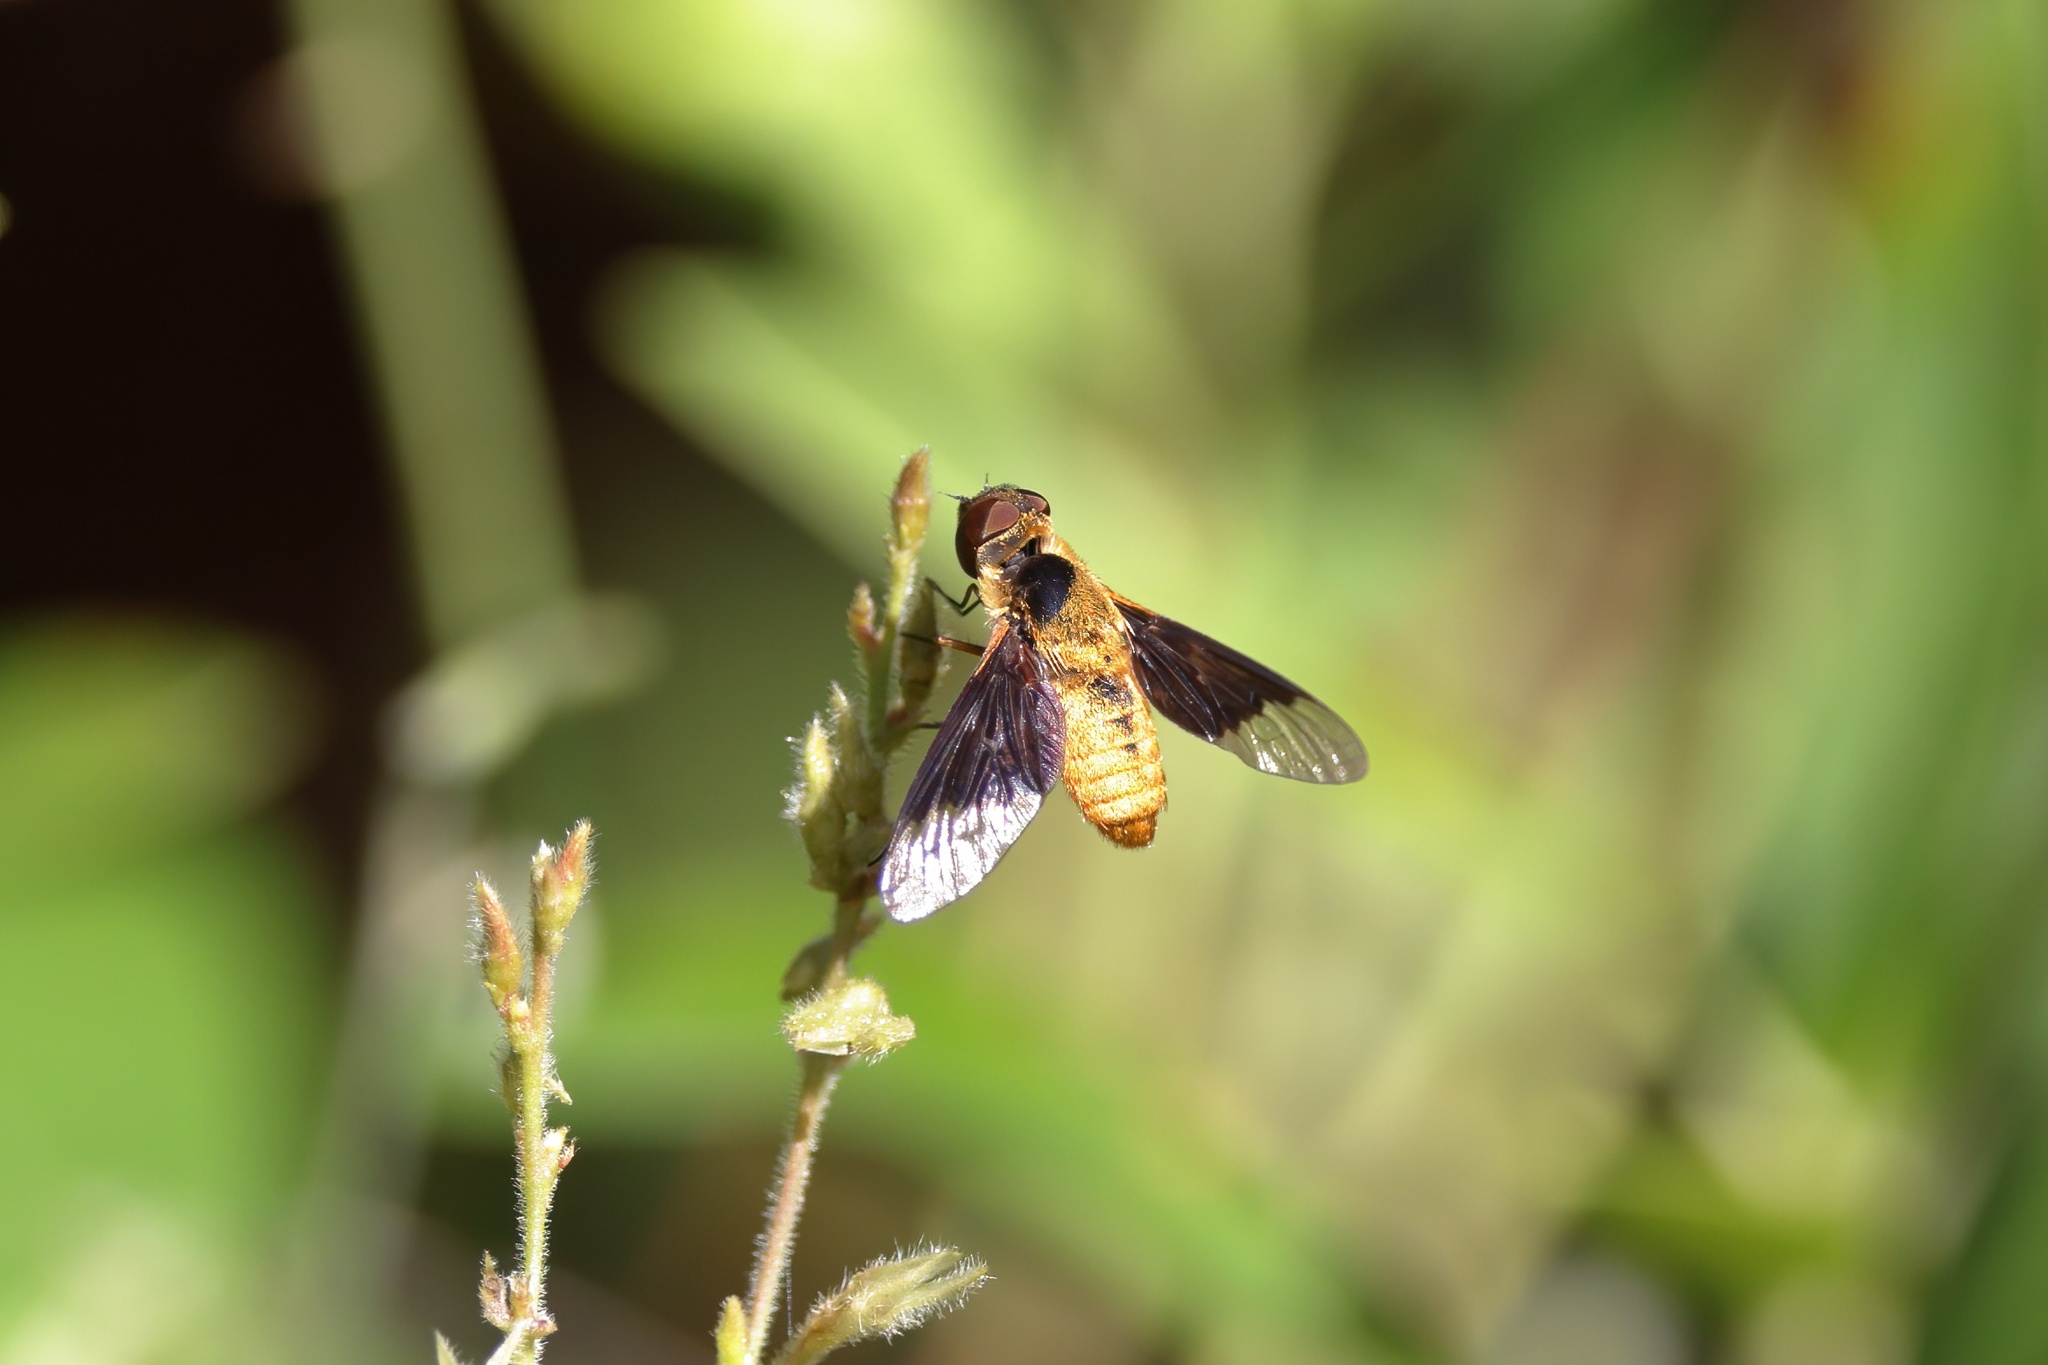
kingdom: Animalia
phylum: Arthropoda
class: Insecta
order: Diptera
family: Bombyliidae
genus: Chrysanthrax
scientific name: Chrysanthrax cypris
